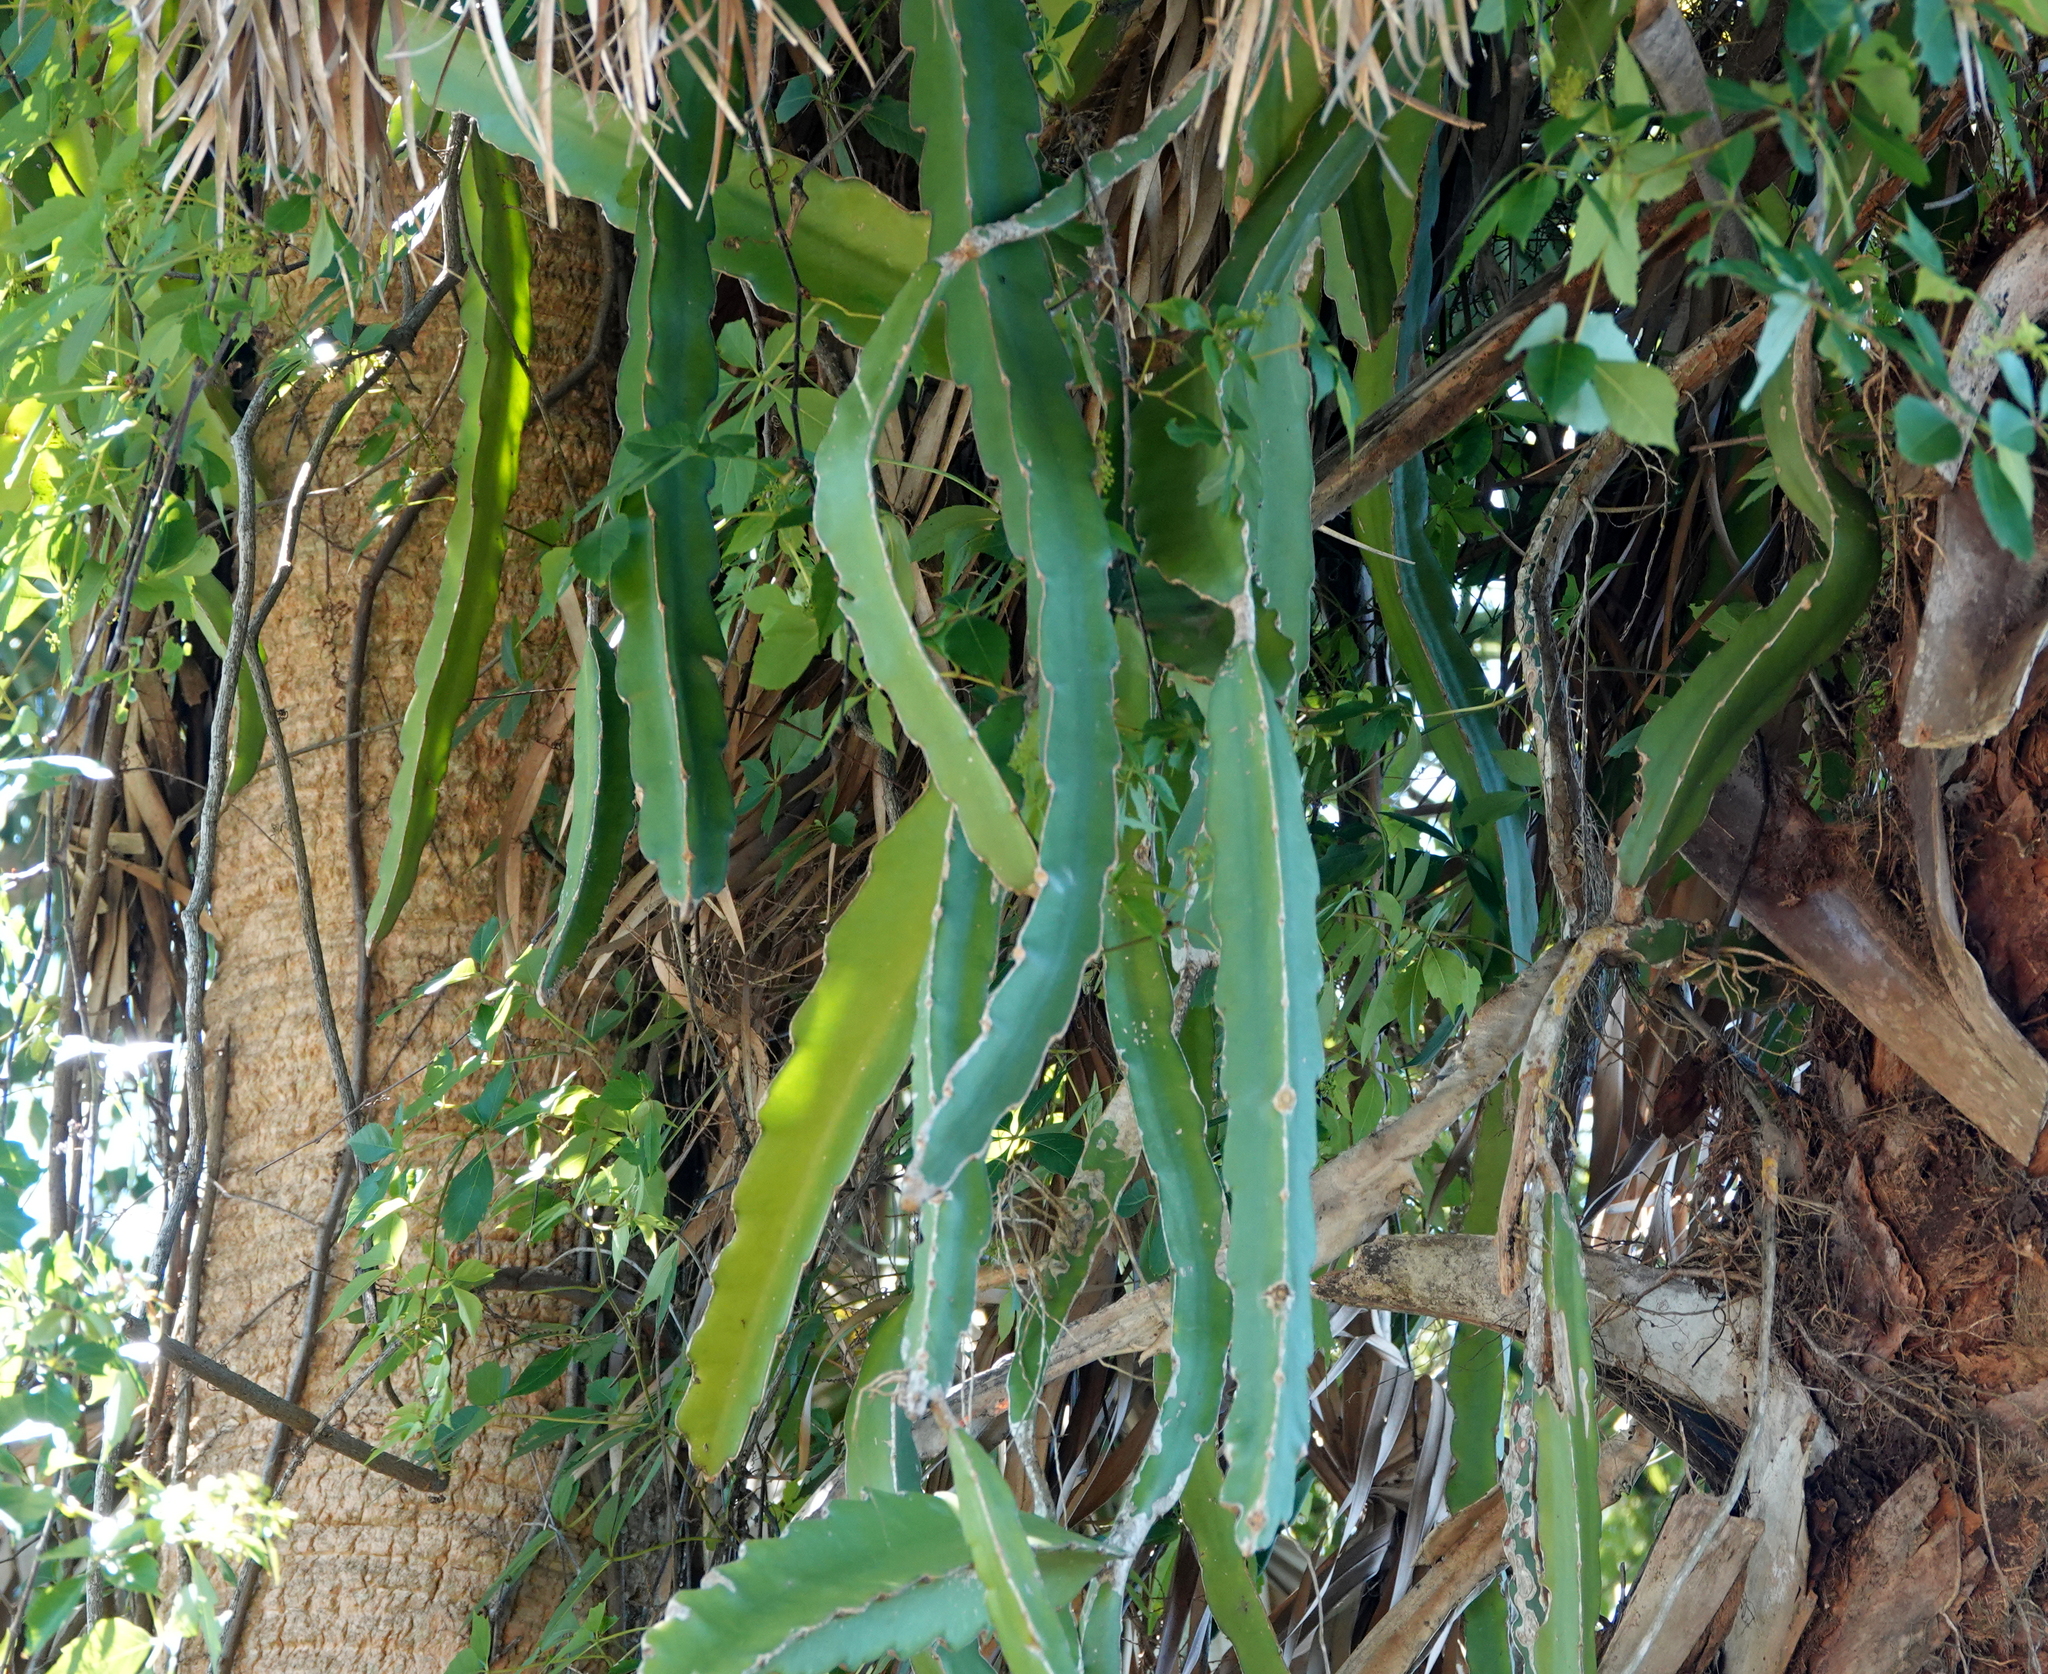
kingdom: Plantae
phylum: Tracheophyta
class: Magnoliopsida
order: Caryophyllales
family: Cactaceae
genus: Selenicereus
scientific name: Selenicereus undatus
